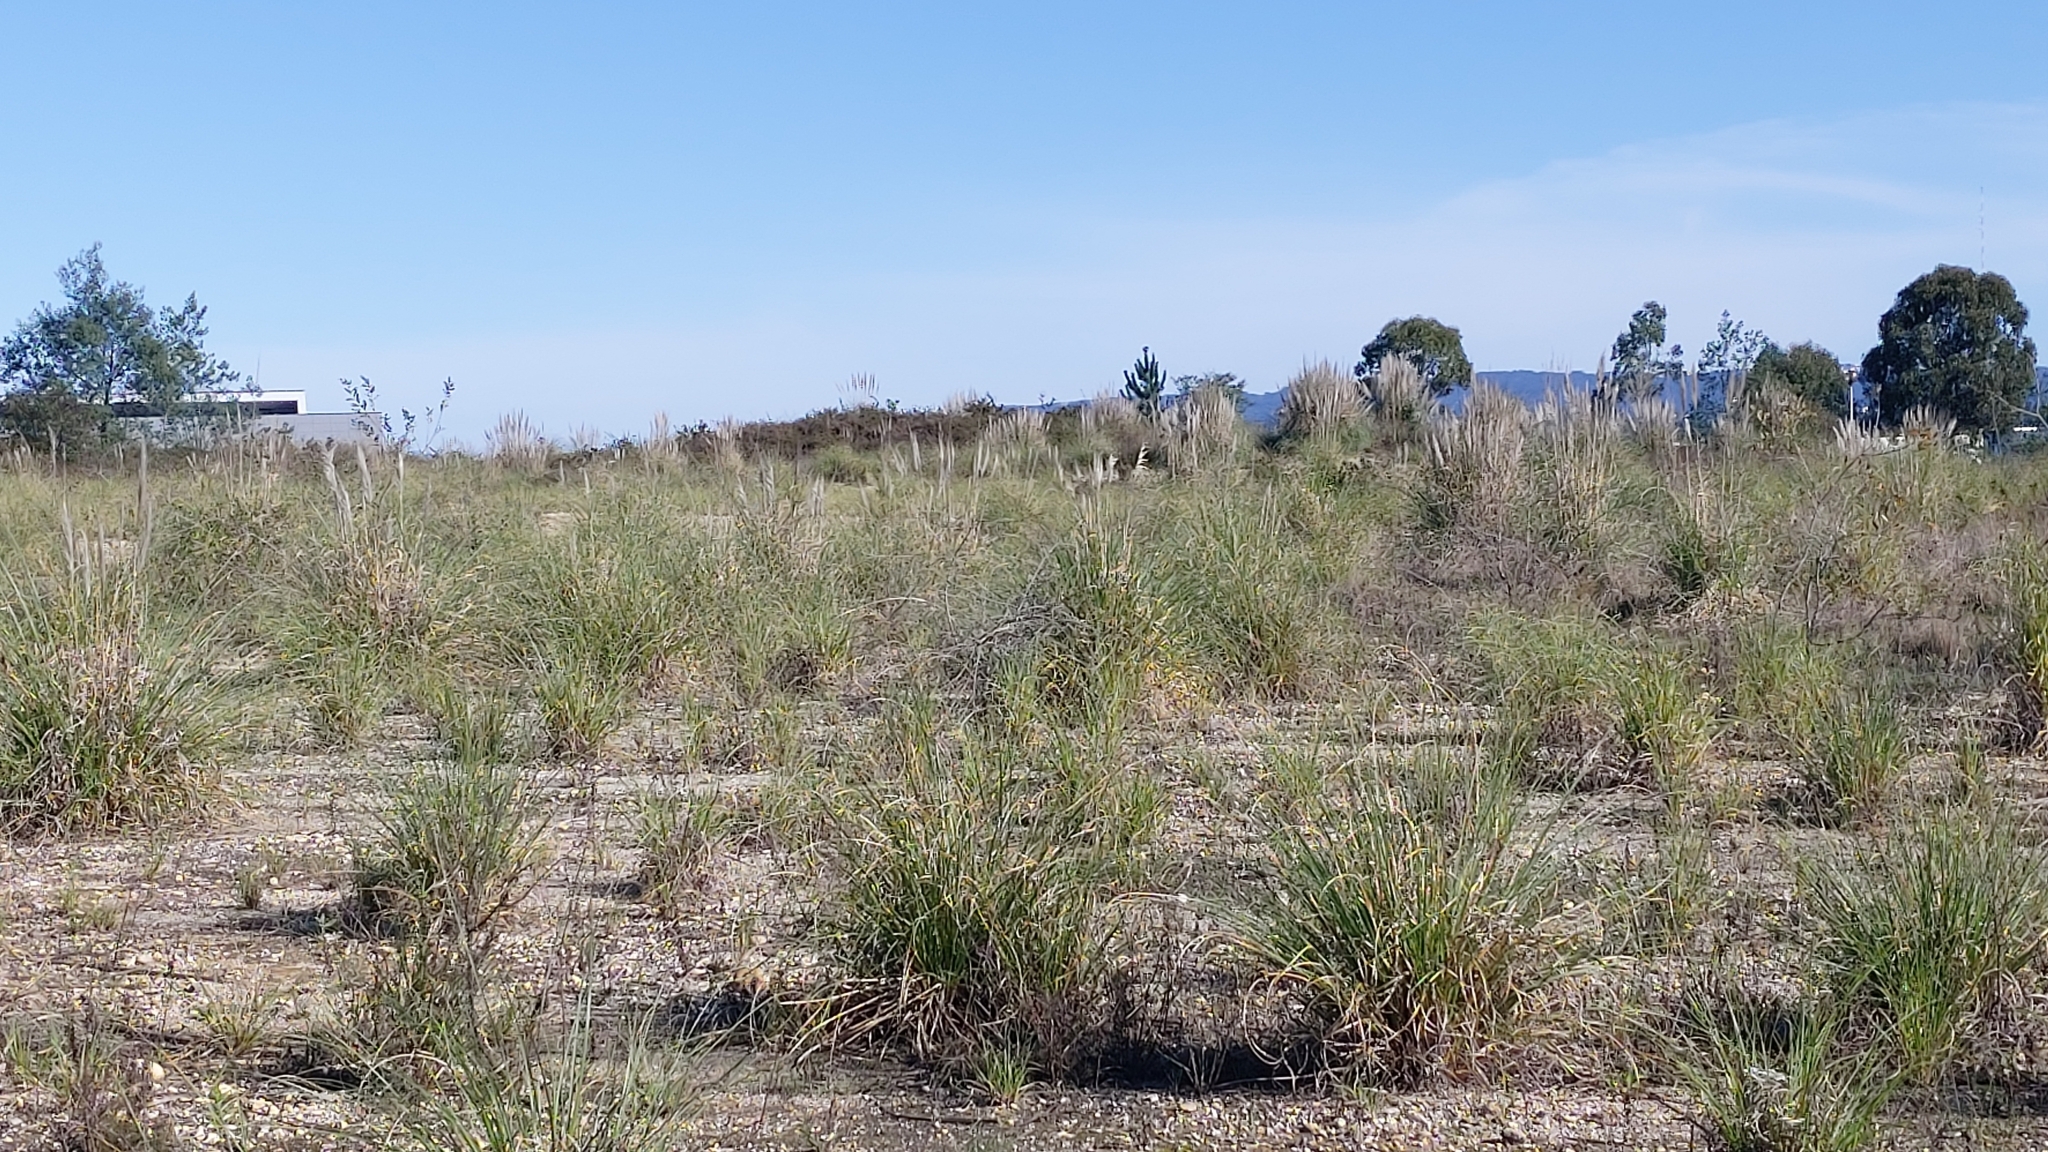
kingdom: Plantae
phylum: Tracheophyta
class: Liliopsida
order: Poales
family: Poaceae
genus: Cortaderia
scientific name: Cortaderia selloana
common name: Uruguayan pampas grass
